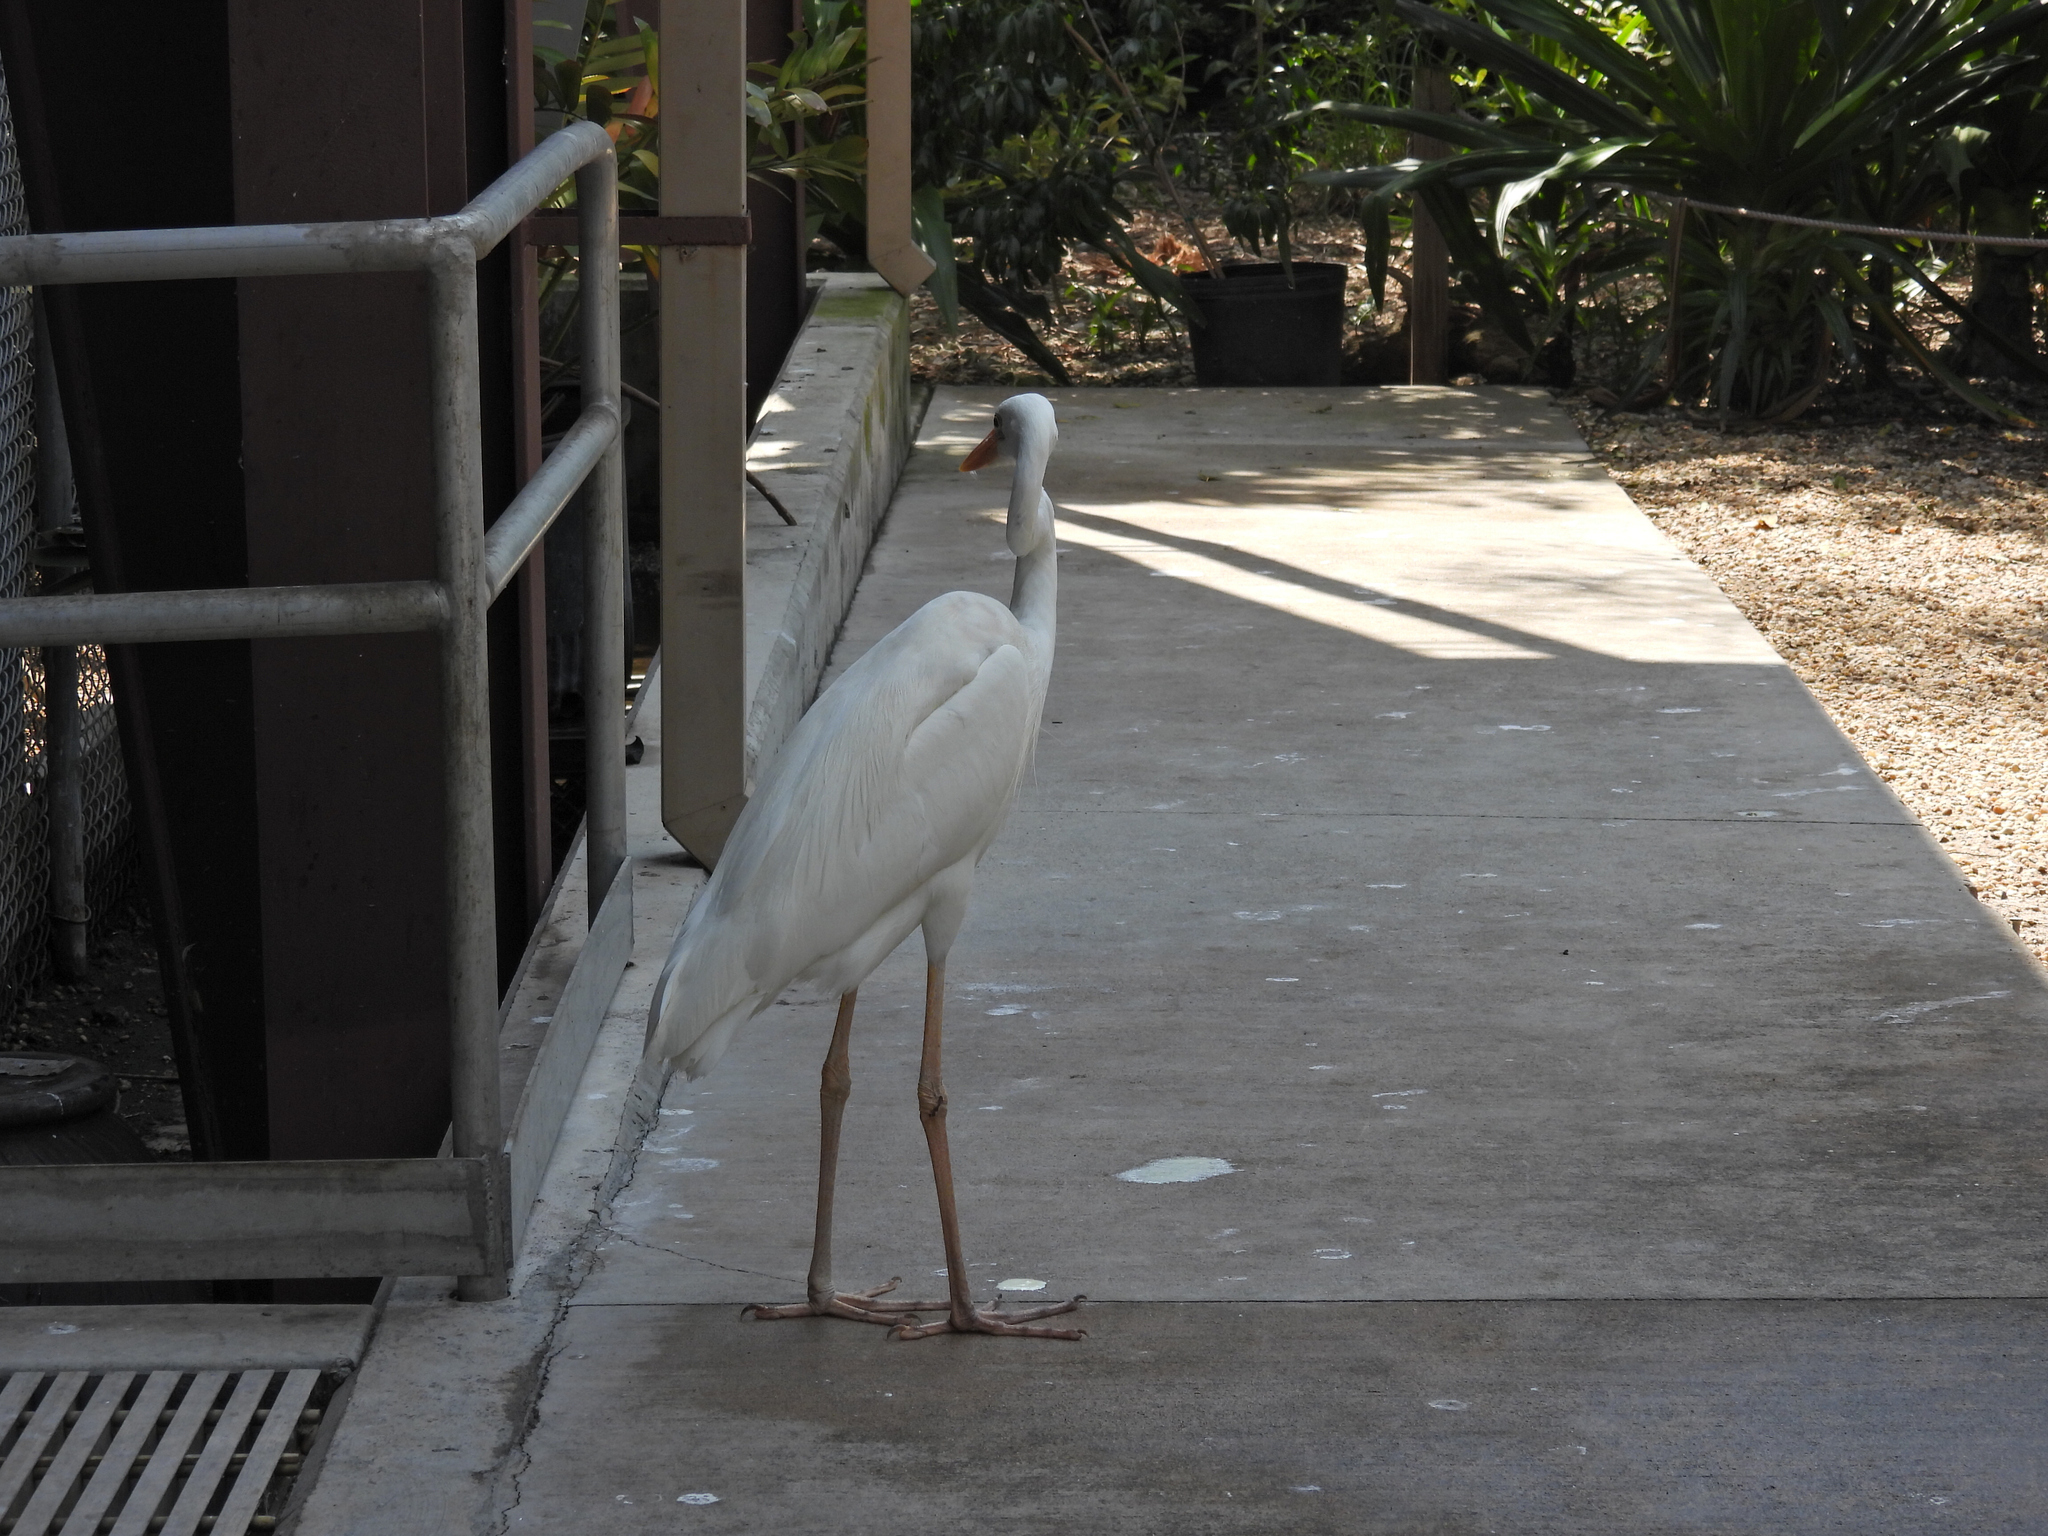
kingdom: Animalia
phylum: Chordata
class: Aves
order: Pelecaniformes
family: Ardeidae
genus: Ardea
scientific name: Ardea herodias
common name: Great blue heron
